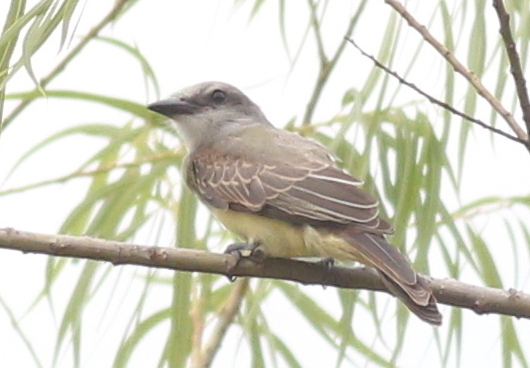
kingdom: Animalia
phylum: Chordata
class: Aves
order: Passeriformes
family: Tyrannidae
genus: Tyrannus
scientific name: Tyrannus melancholicus
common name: Tropical kingbird
